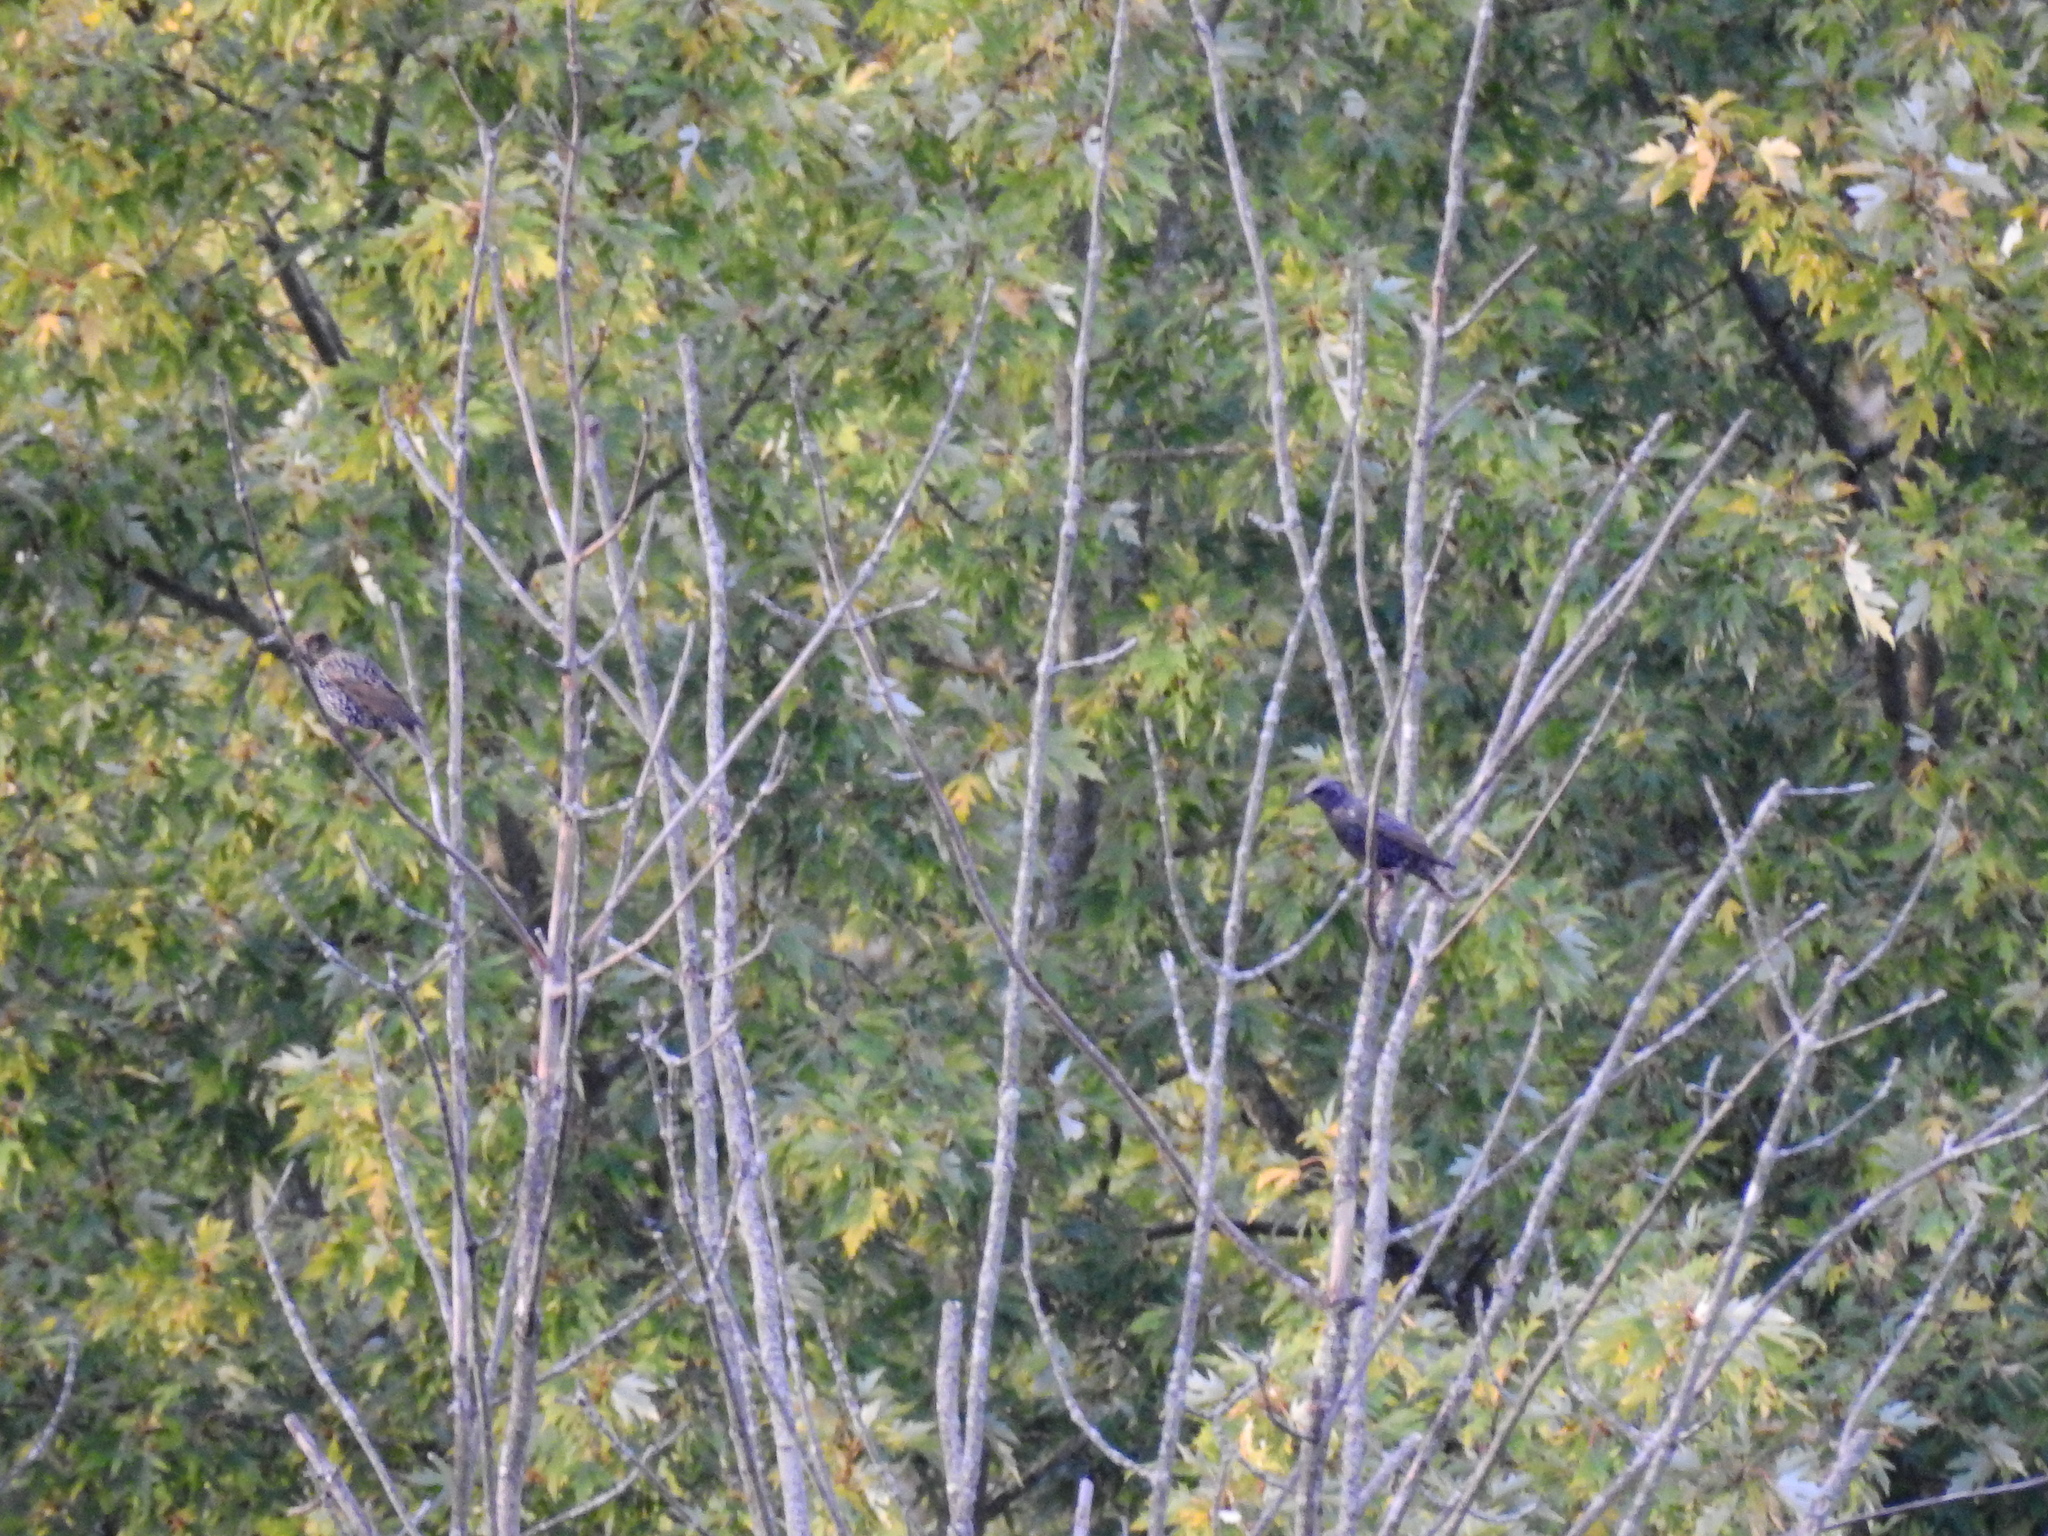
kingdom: Animalia
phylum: Chordata
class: Aves
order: Passeriformes
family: Sturnidae
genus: Sturnus
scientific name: Sturnus vulgaris
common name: Common starling
